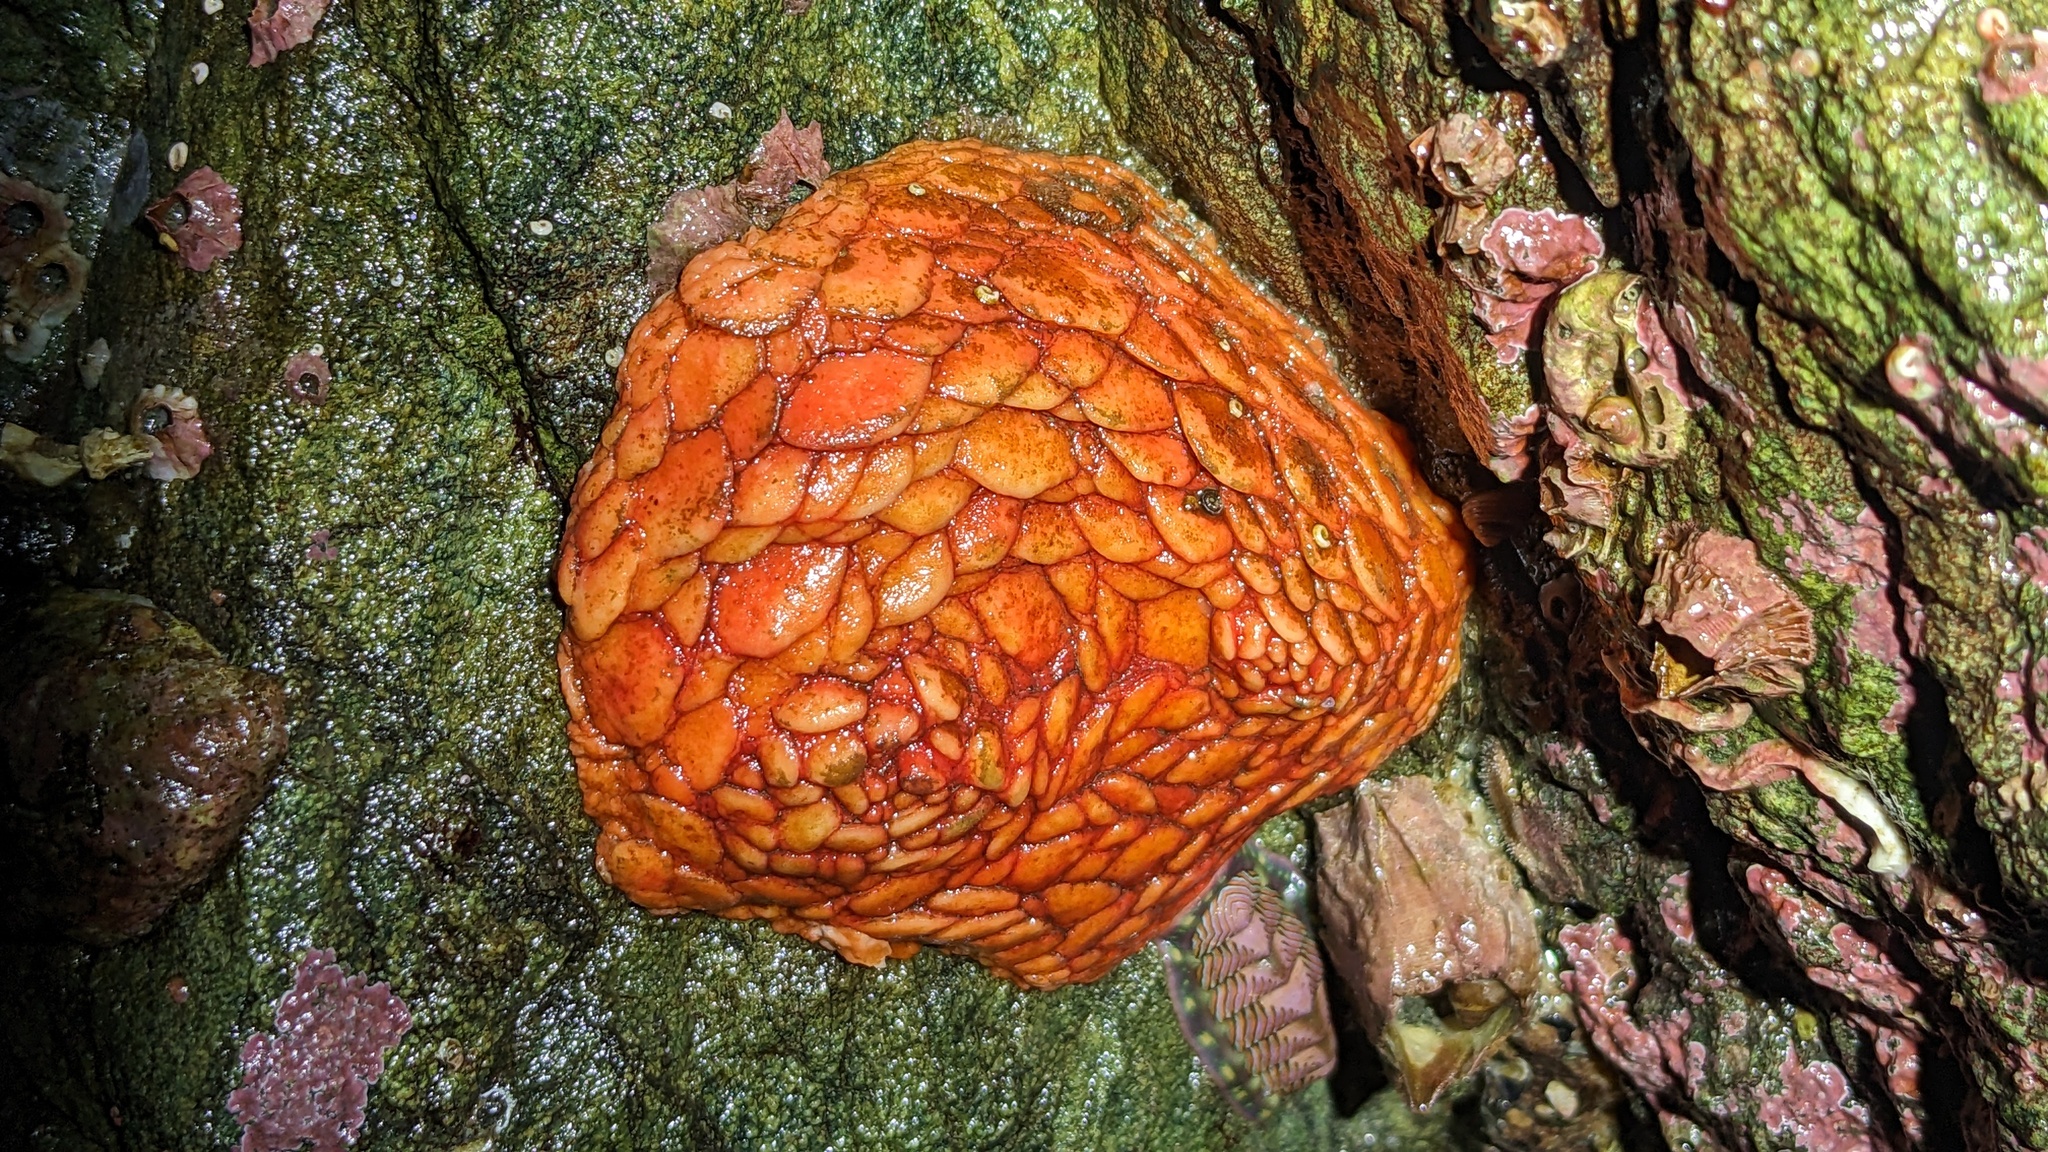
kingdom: Animalia
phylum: Echinodermata
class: Holothuroidea
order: Dendrochirotida
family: Psolidae
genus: Psolus
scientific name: Psolus chitonoides
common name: Creeping pedal sea cucumber
